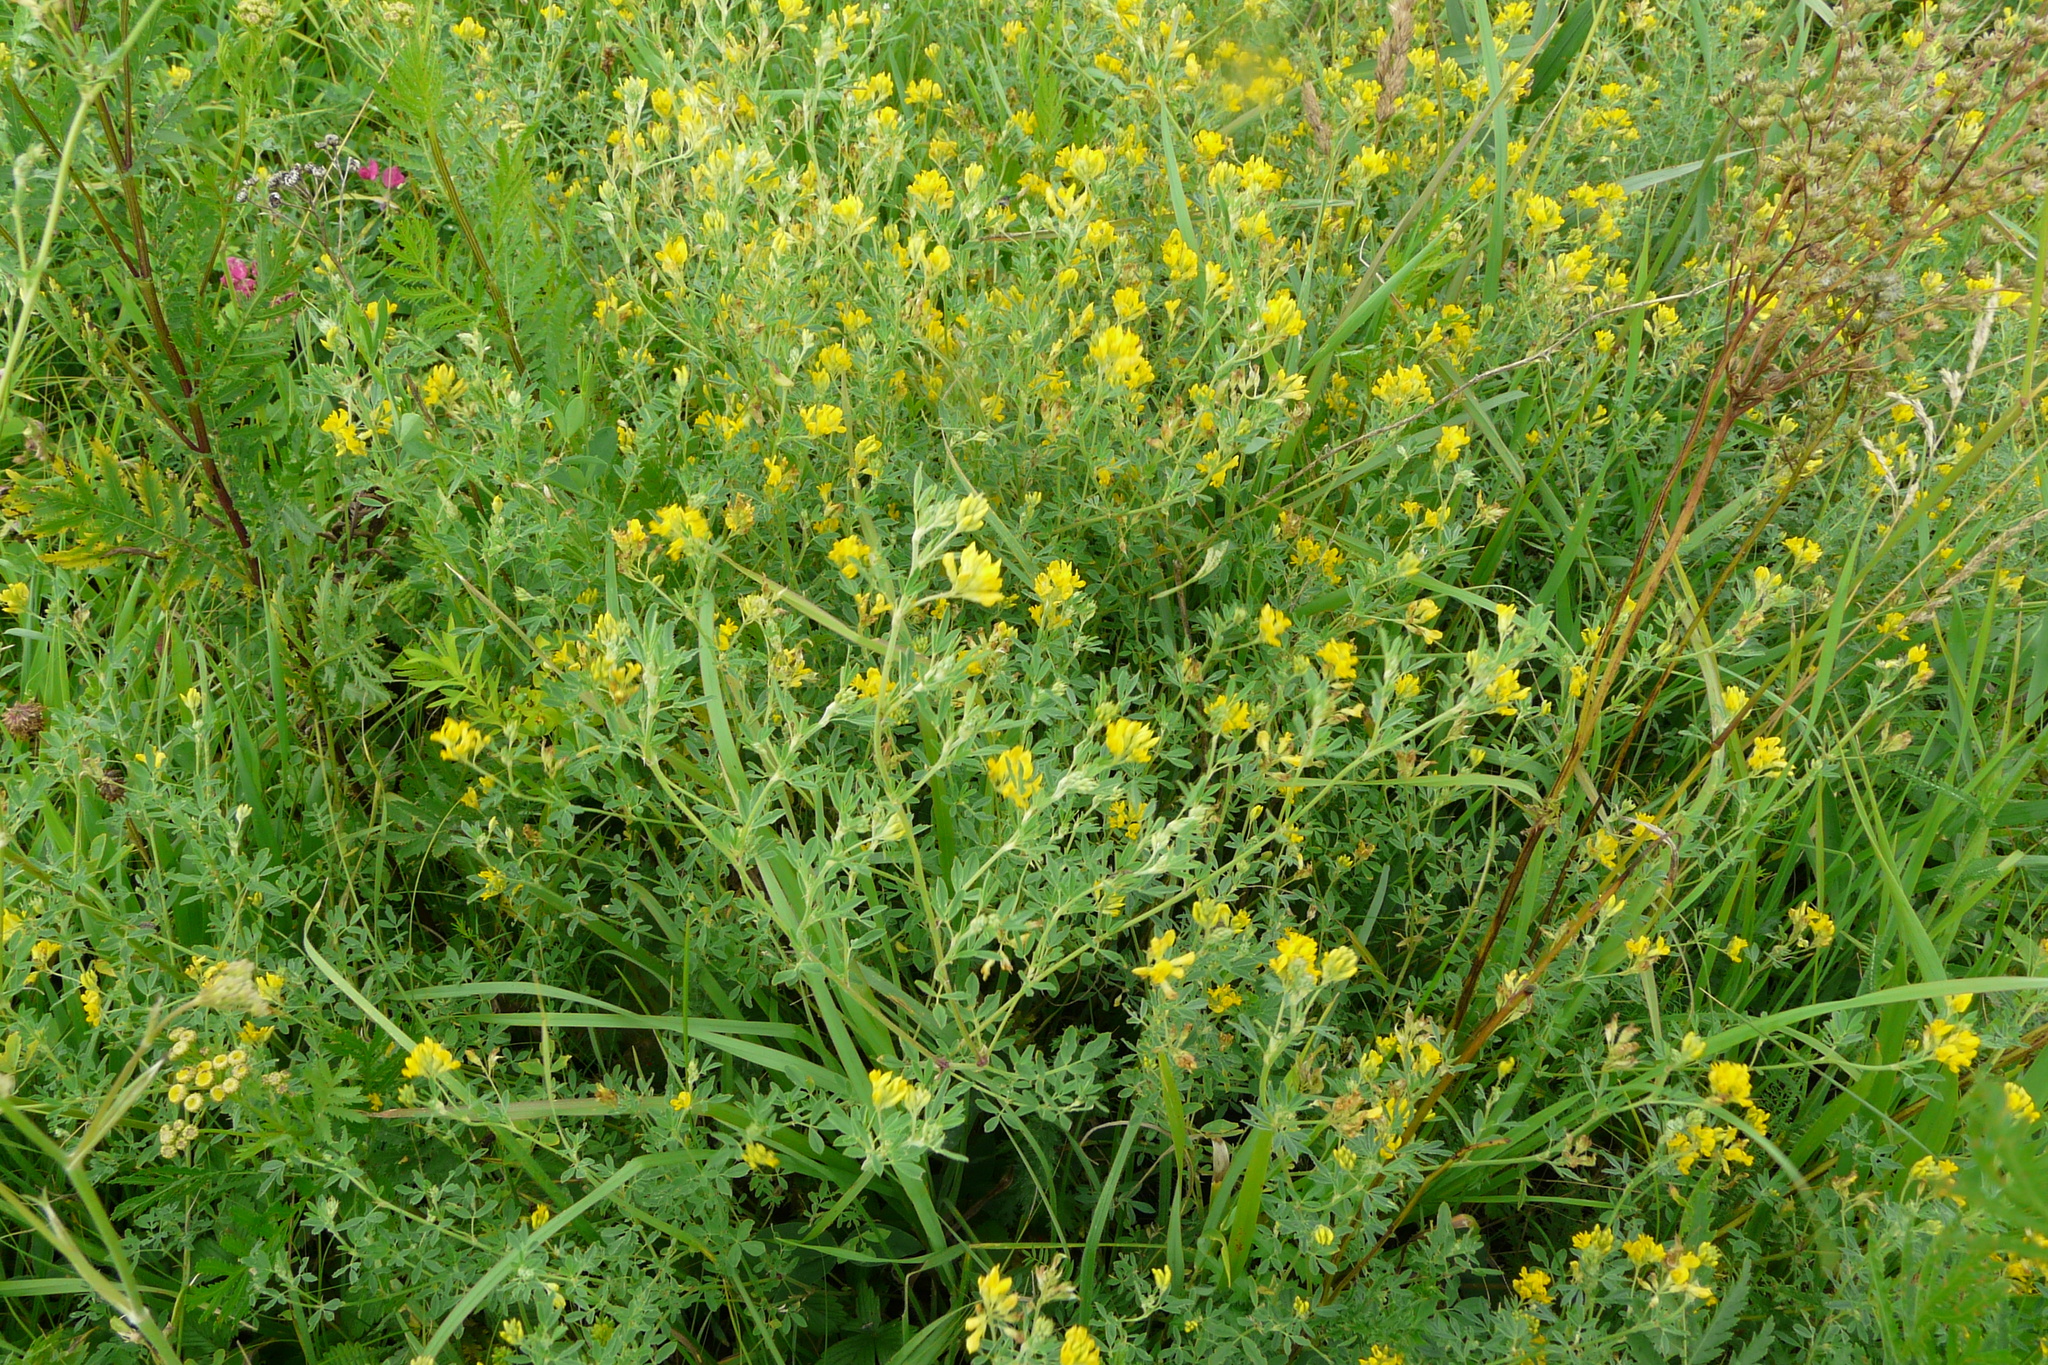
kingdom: Plantae
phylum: Tracheophyta
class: Magnoliopsida
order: Fabales
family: Fabaceae
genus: Medicago
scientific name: Medicago falcata
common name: Sickle medick
